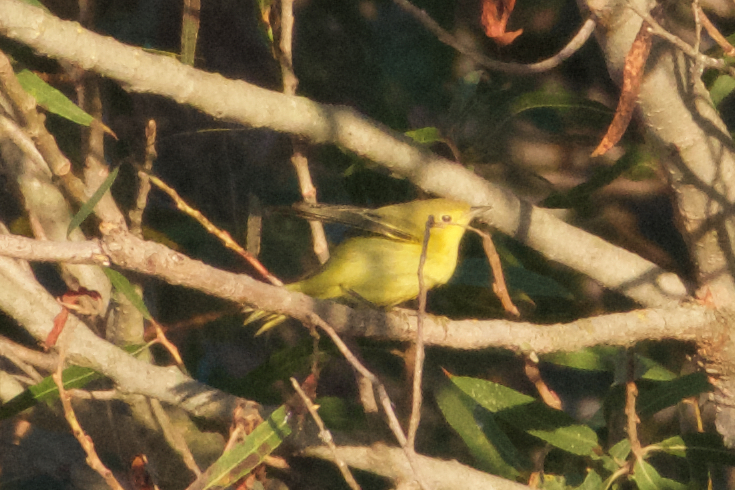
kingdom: Animalia
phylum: Chordata
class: Aves
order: Passeriformes
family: Parulidae
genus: Setophaga
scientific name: Setophaga petechia
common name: Yellow warbler
